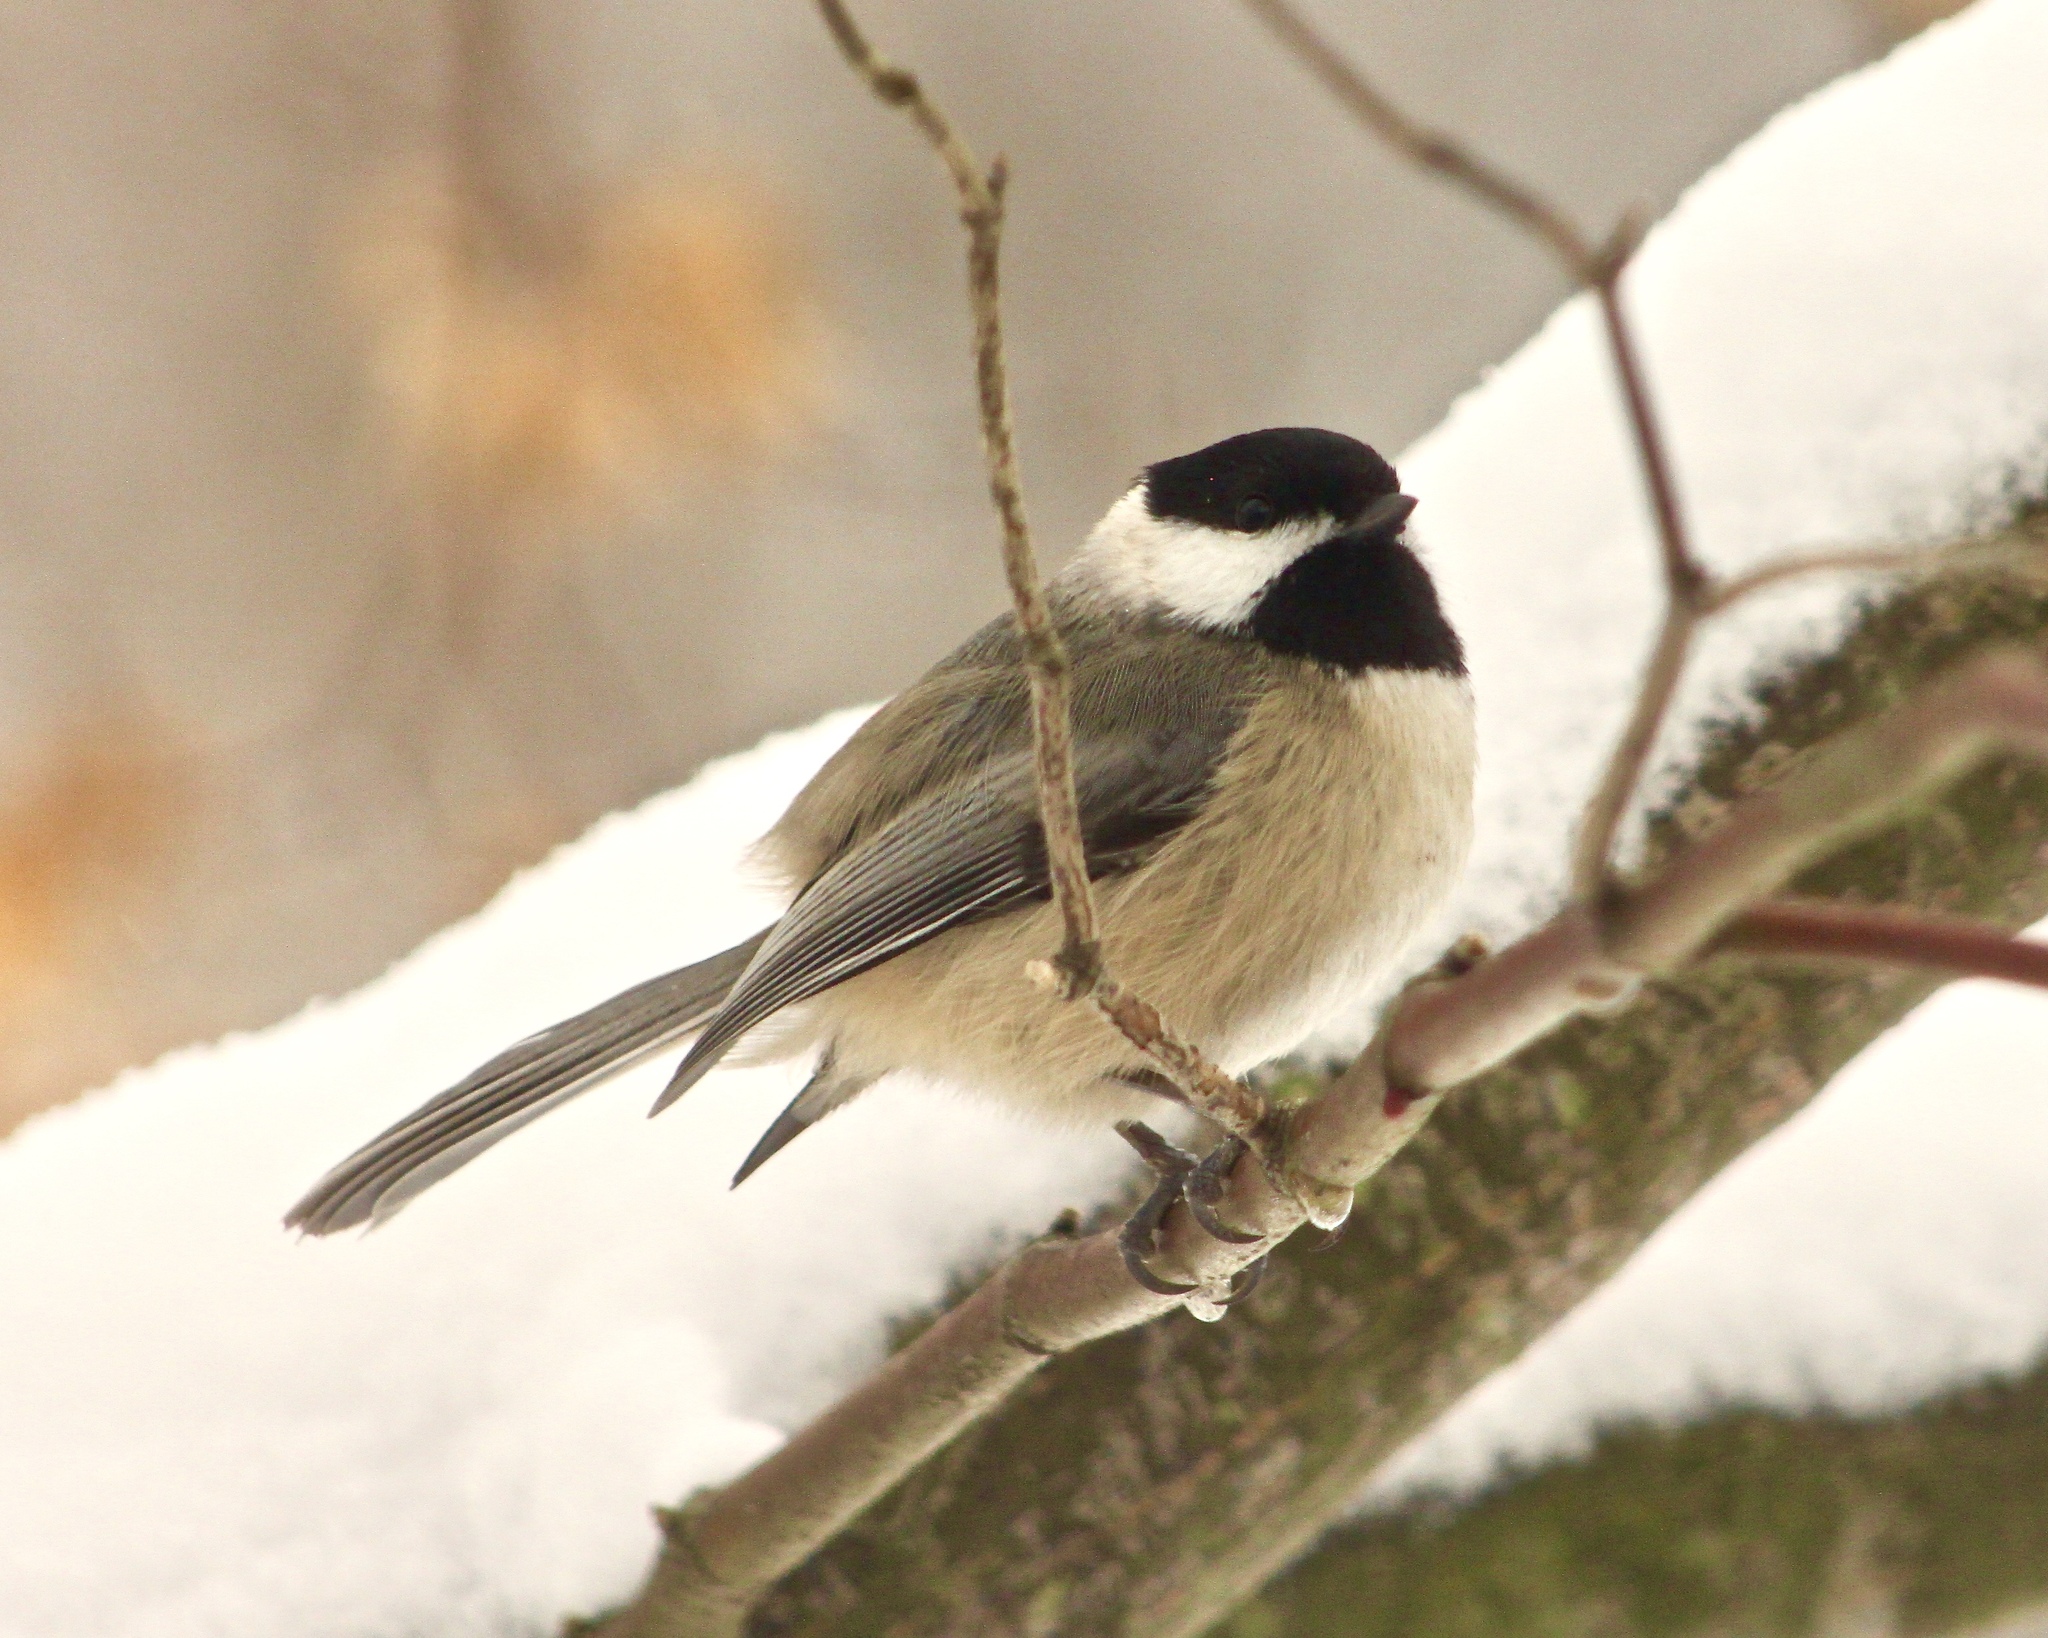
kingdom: Animalia
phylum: Chordata
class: Aves
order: Passeriformes
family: Paridae
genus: Poecile
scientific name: Poecile carolinensis
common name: Carolina chickadee
